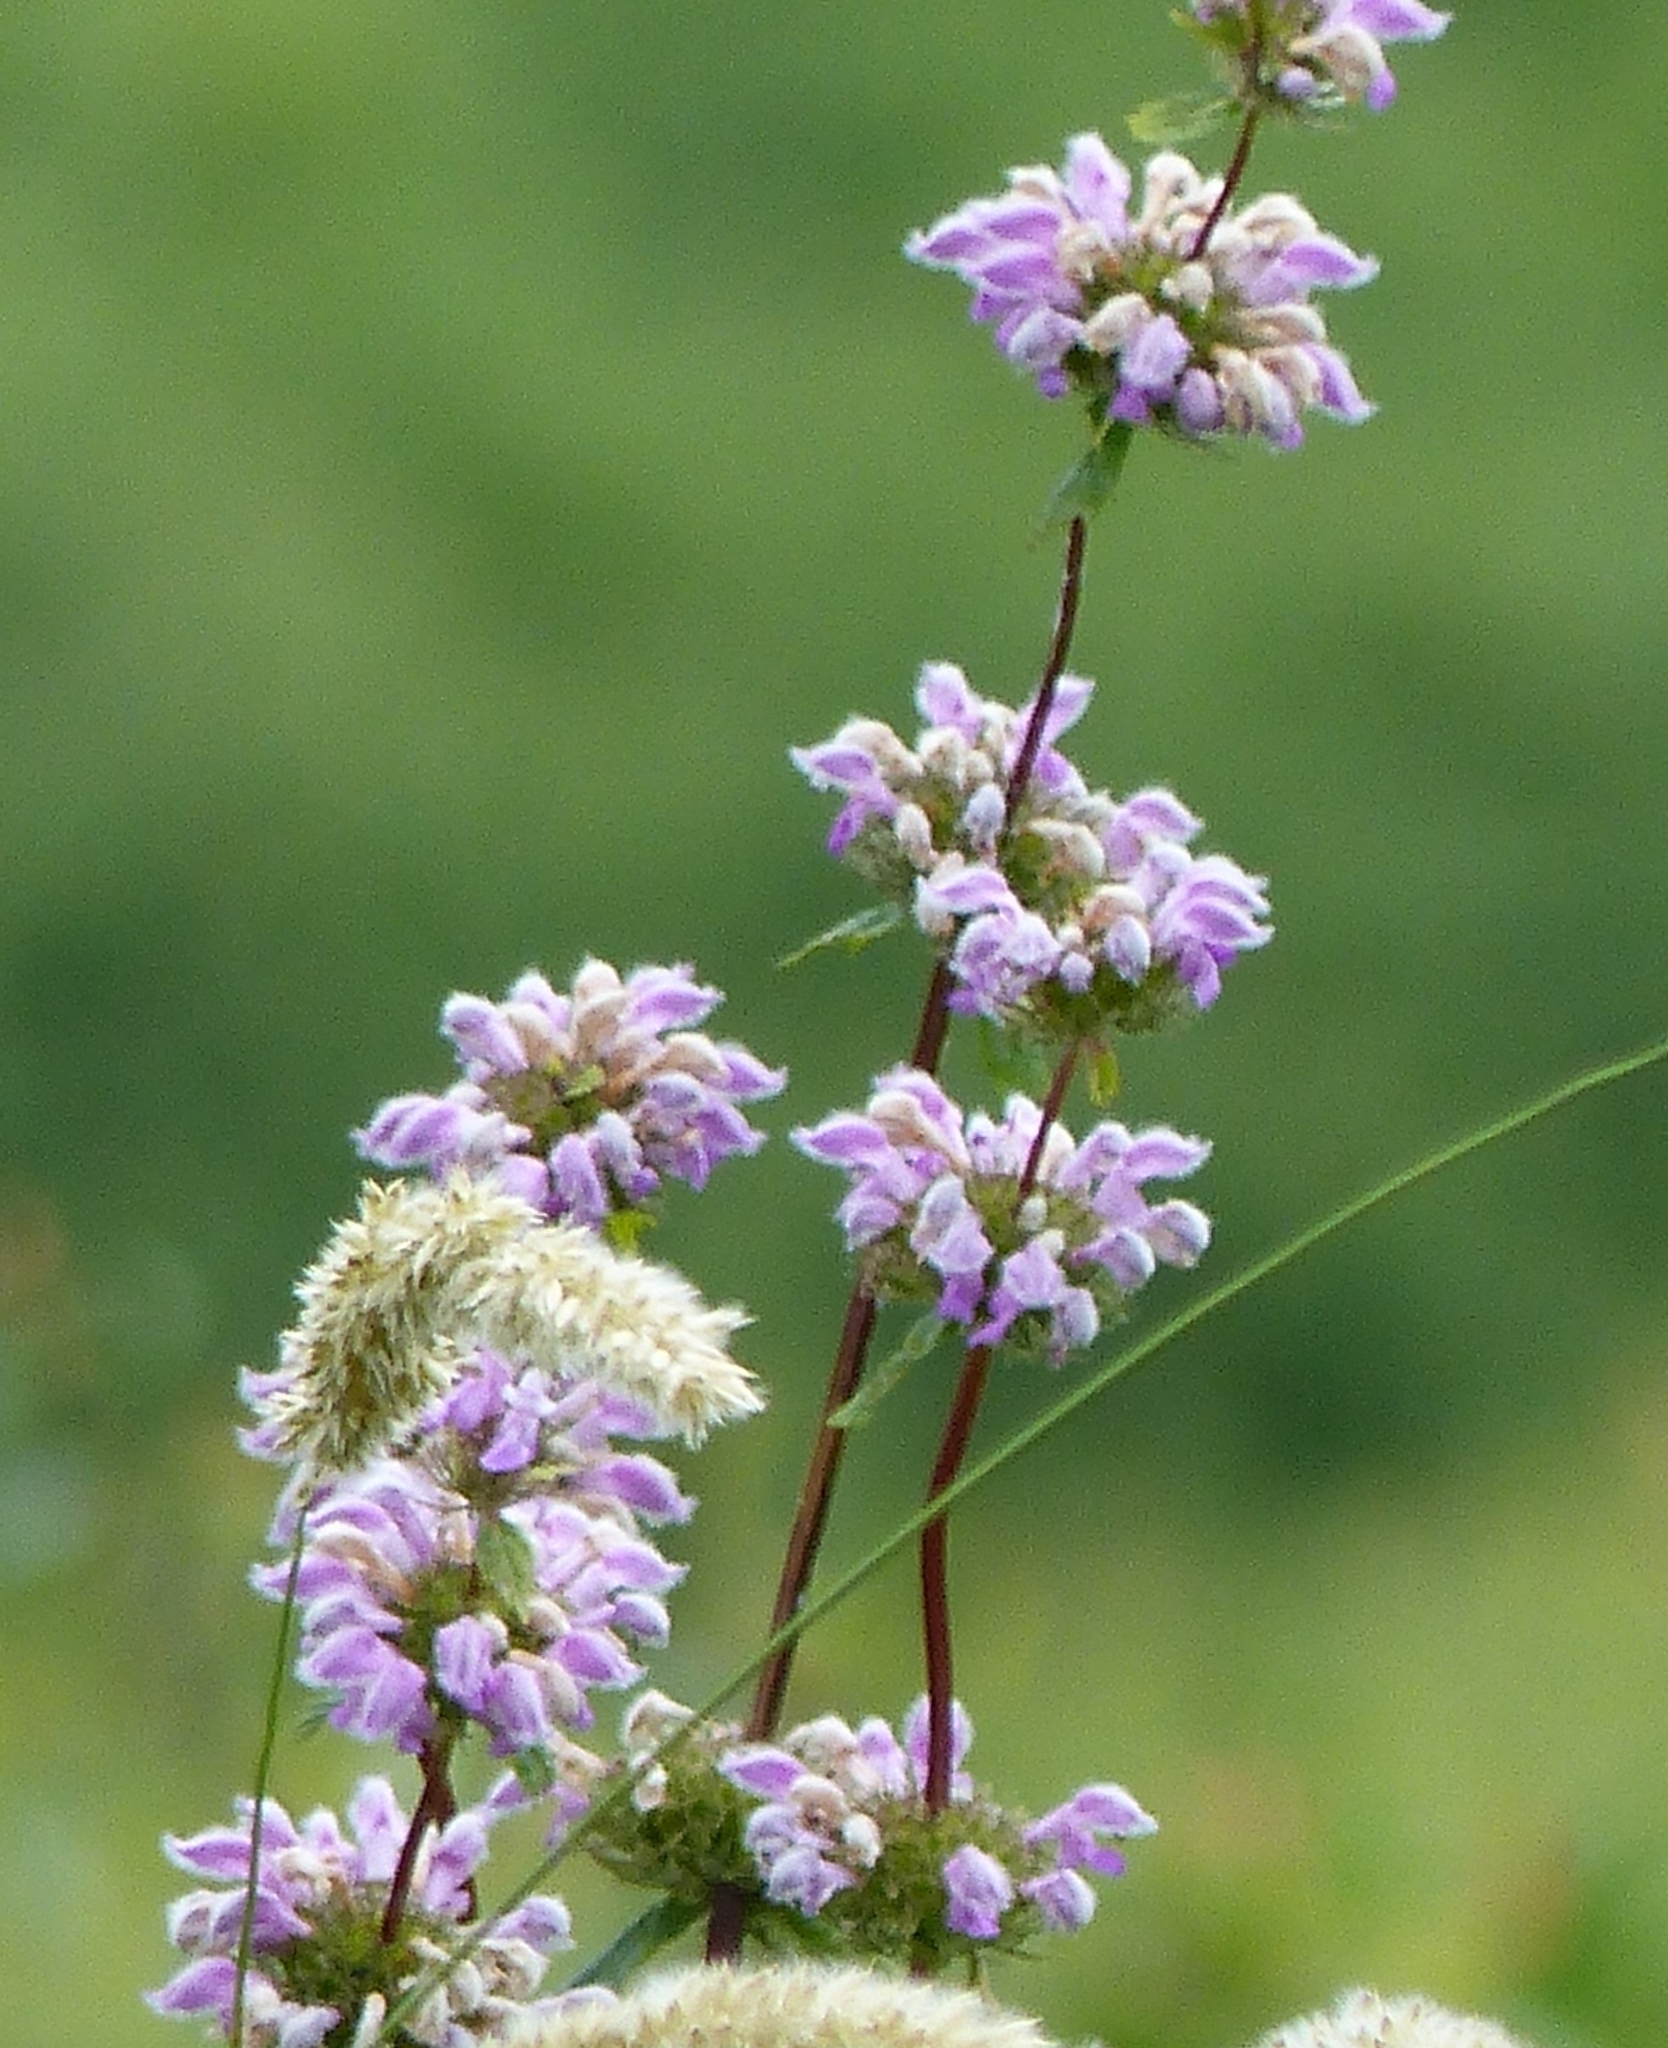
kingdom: Plantae
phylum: Tracheophyta
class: Magnoliopsida
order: Lamiales
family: Lamiaceae
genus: Phlomoides
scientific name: Phlomoides tuberosa
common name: Tuberous jerusalem sage
